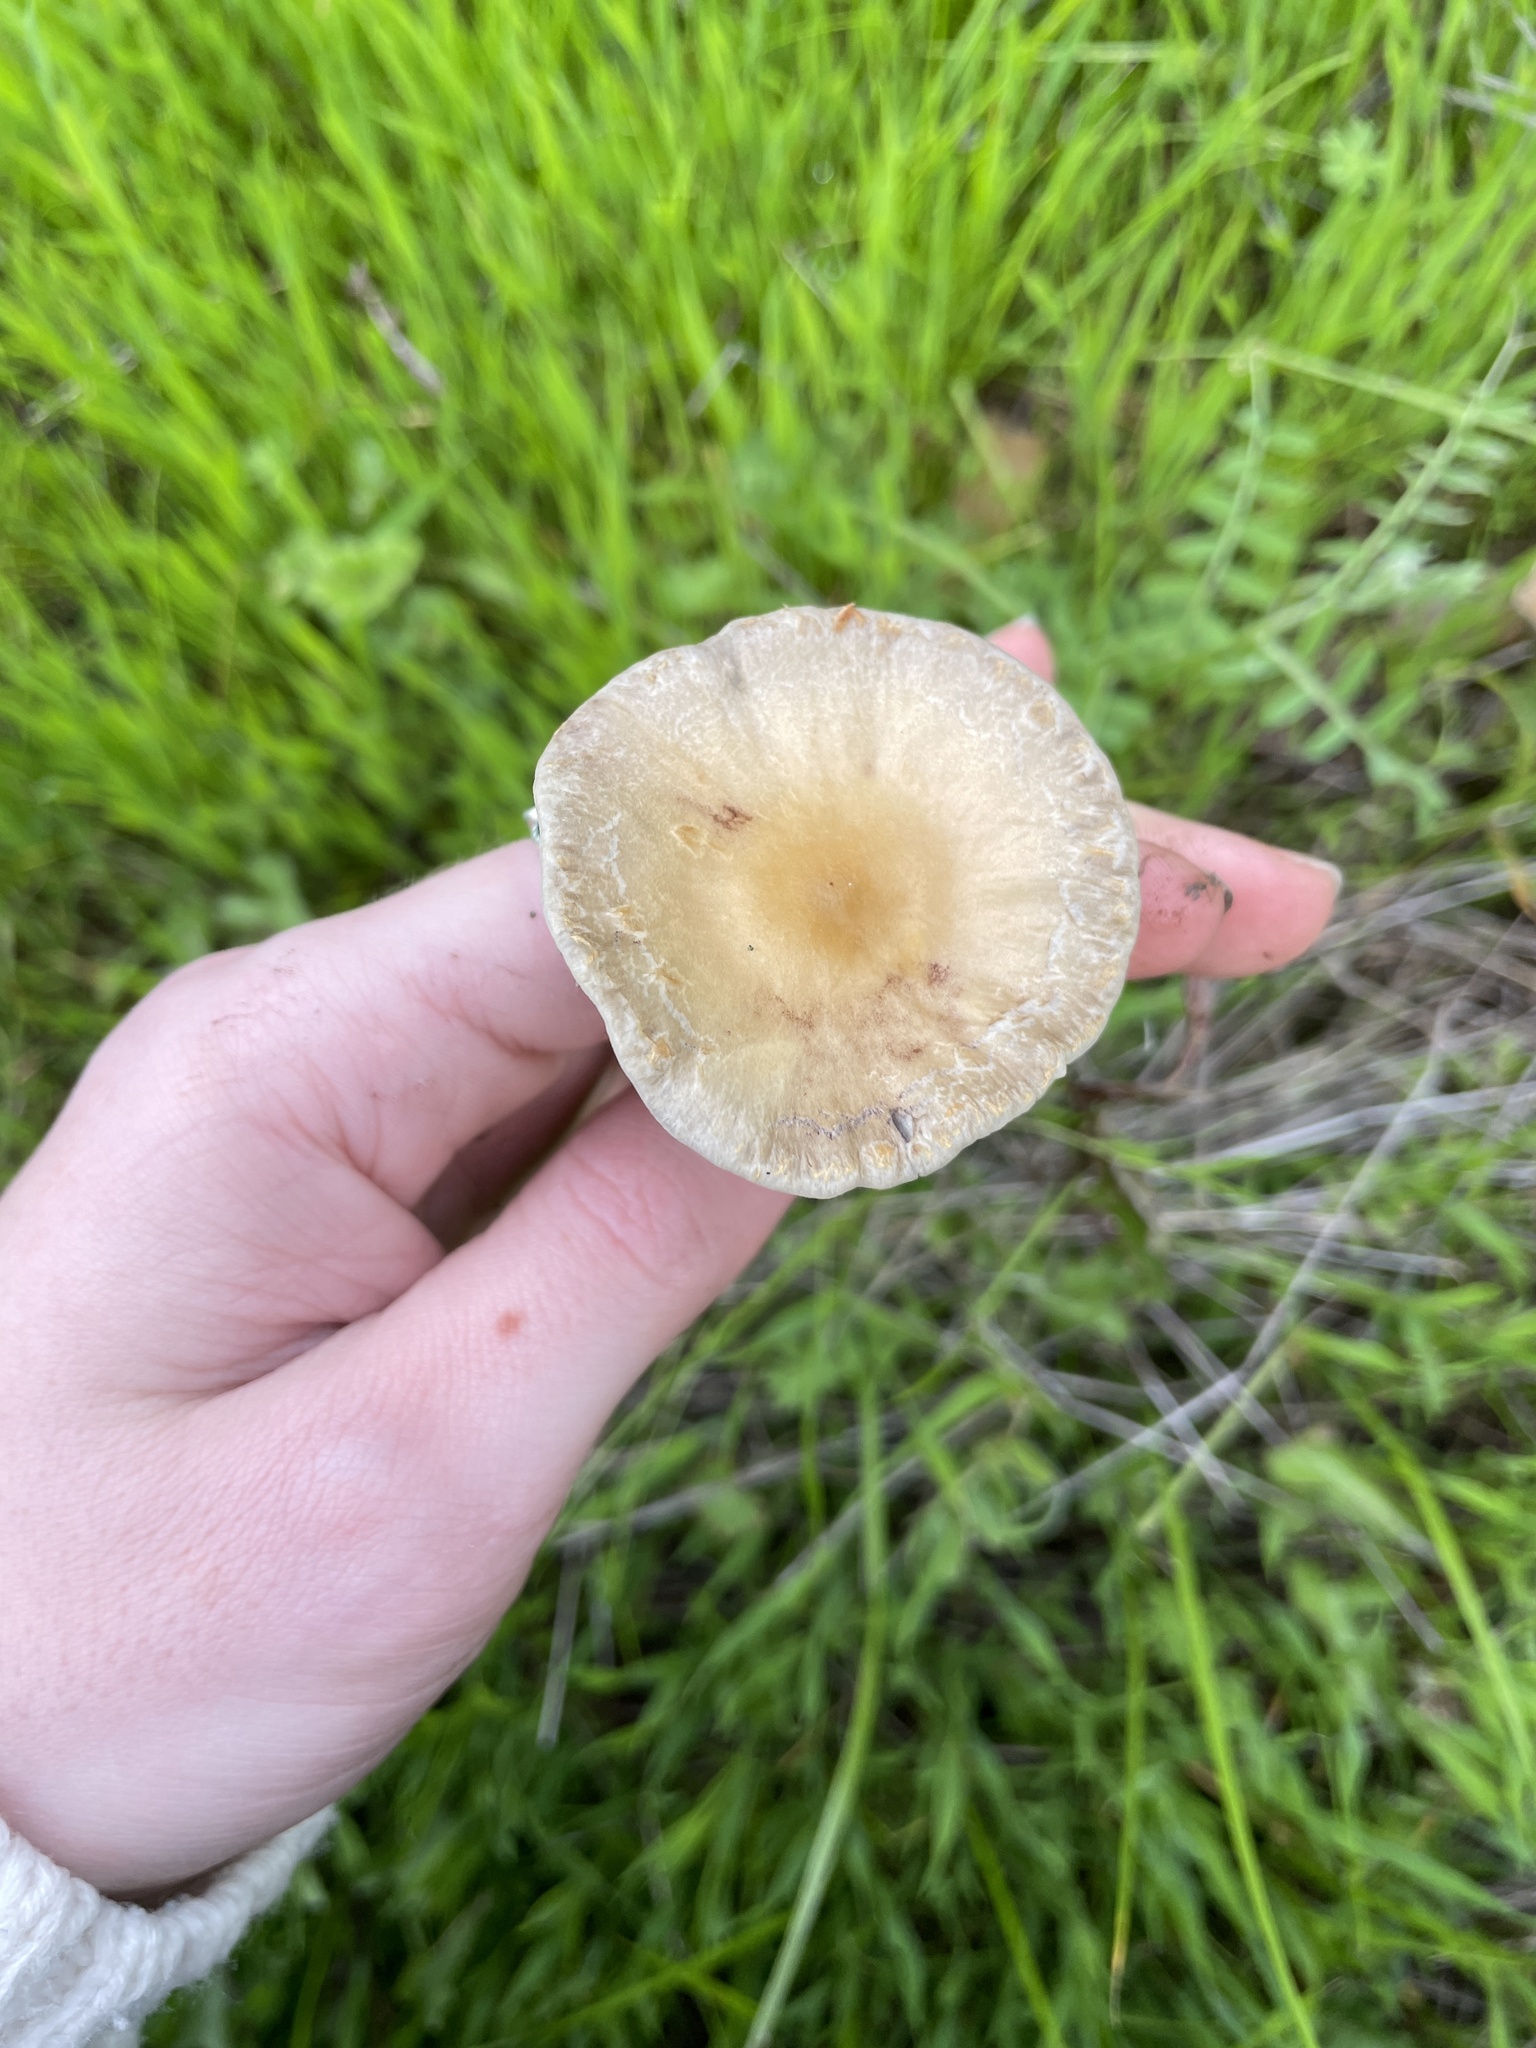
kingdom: Fungi
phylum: Basidiomycota
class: Agaricomycetes
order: Agaricales
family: Strophariaceae
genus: Leratiomyces
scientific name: Leratiomyces percevalii
